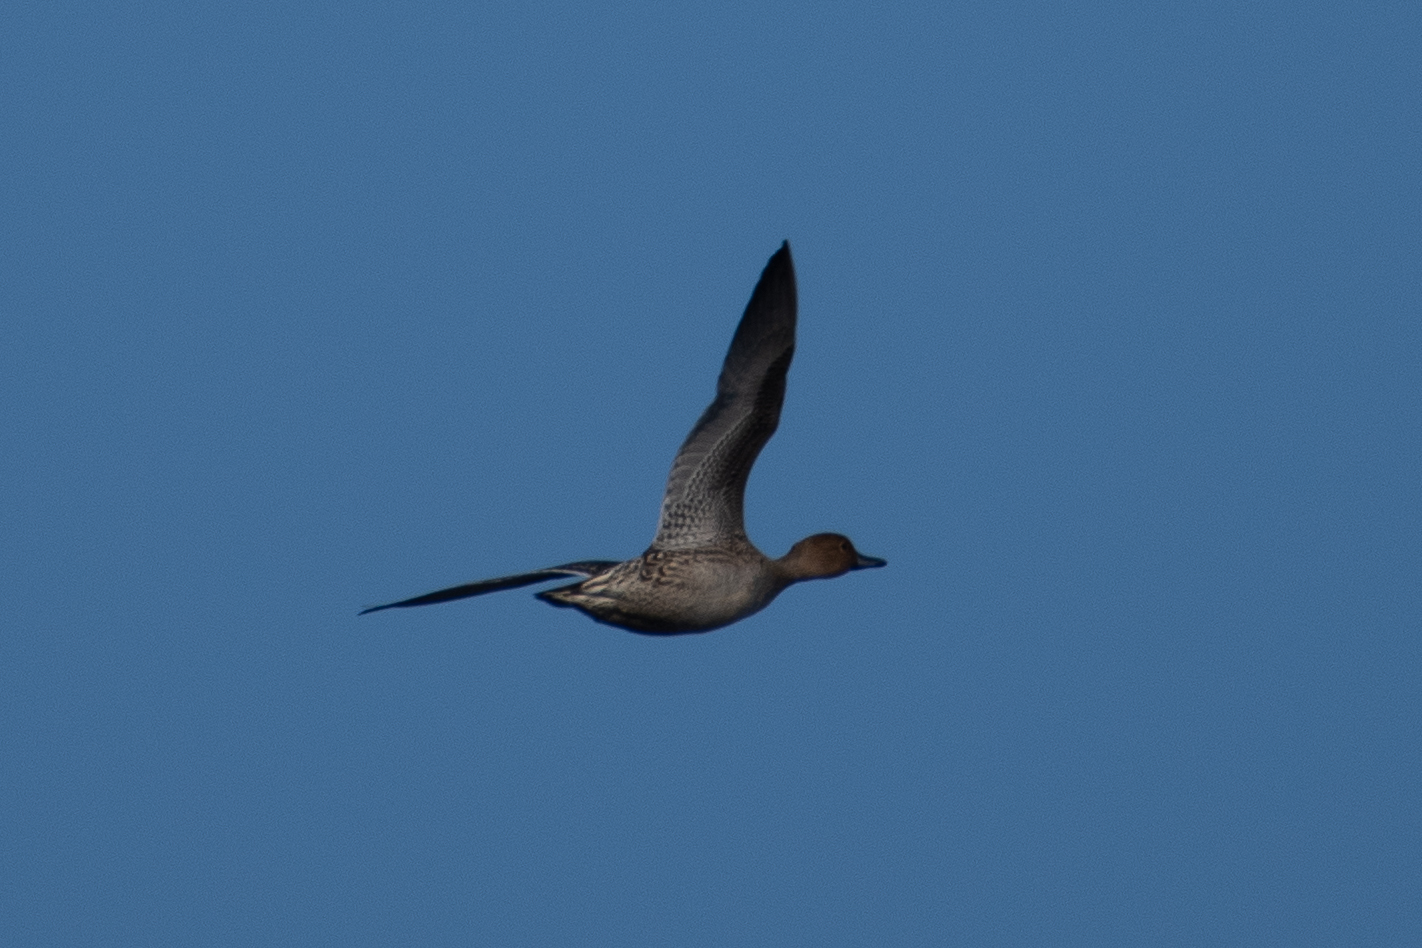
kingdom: Animalia
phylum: Chordata
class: Aves
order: Anseriformes
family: Anatidae
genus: Anas
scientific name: Anas acuta
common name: Northern pintail
